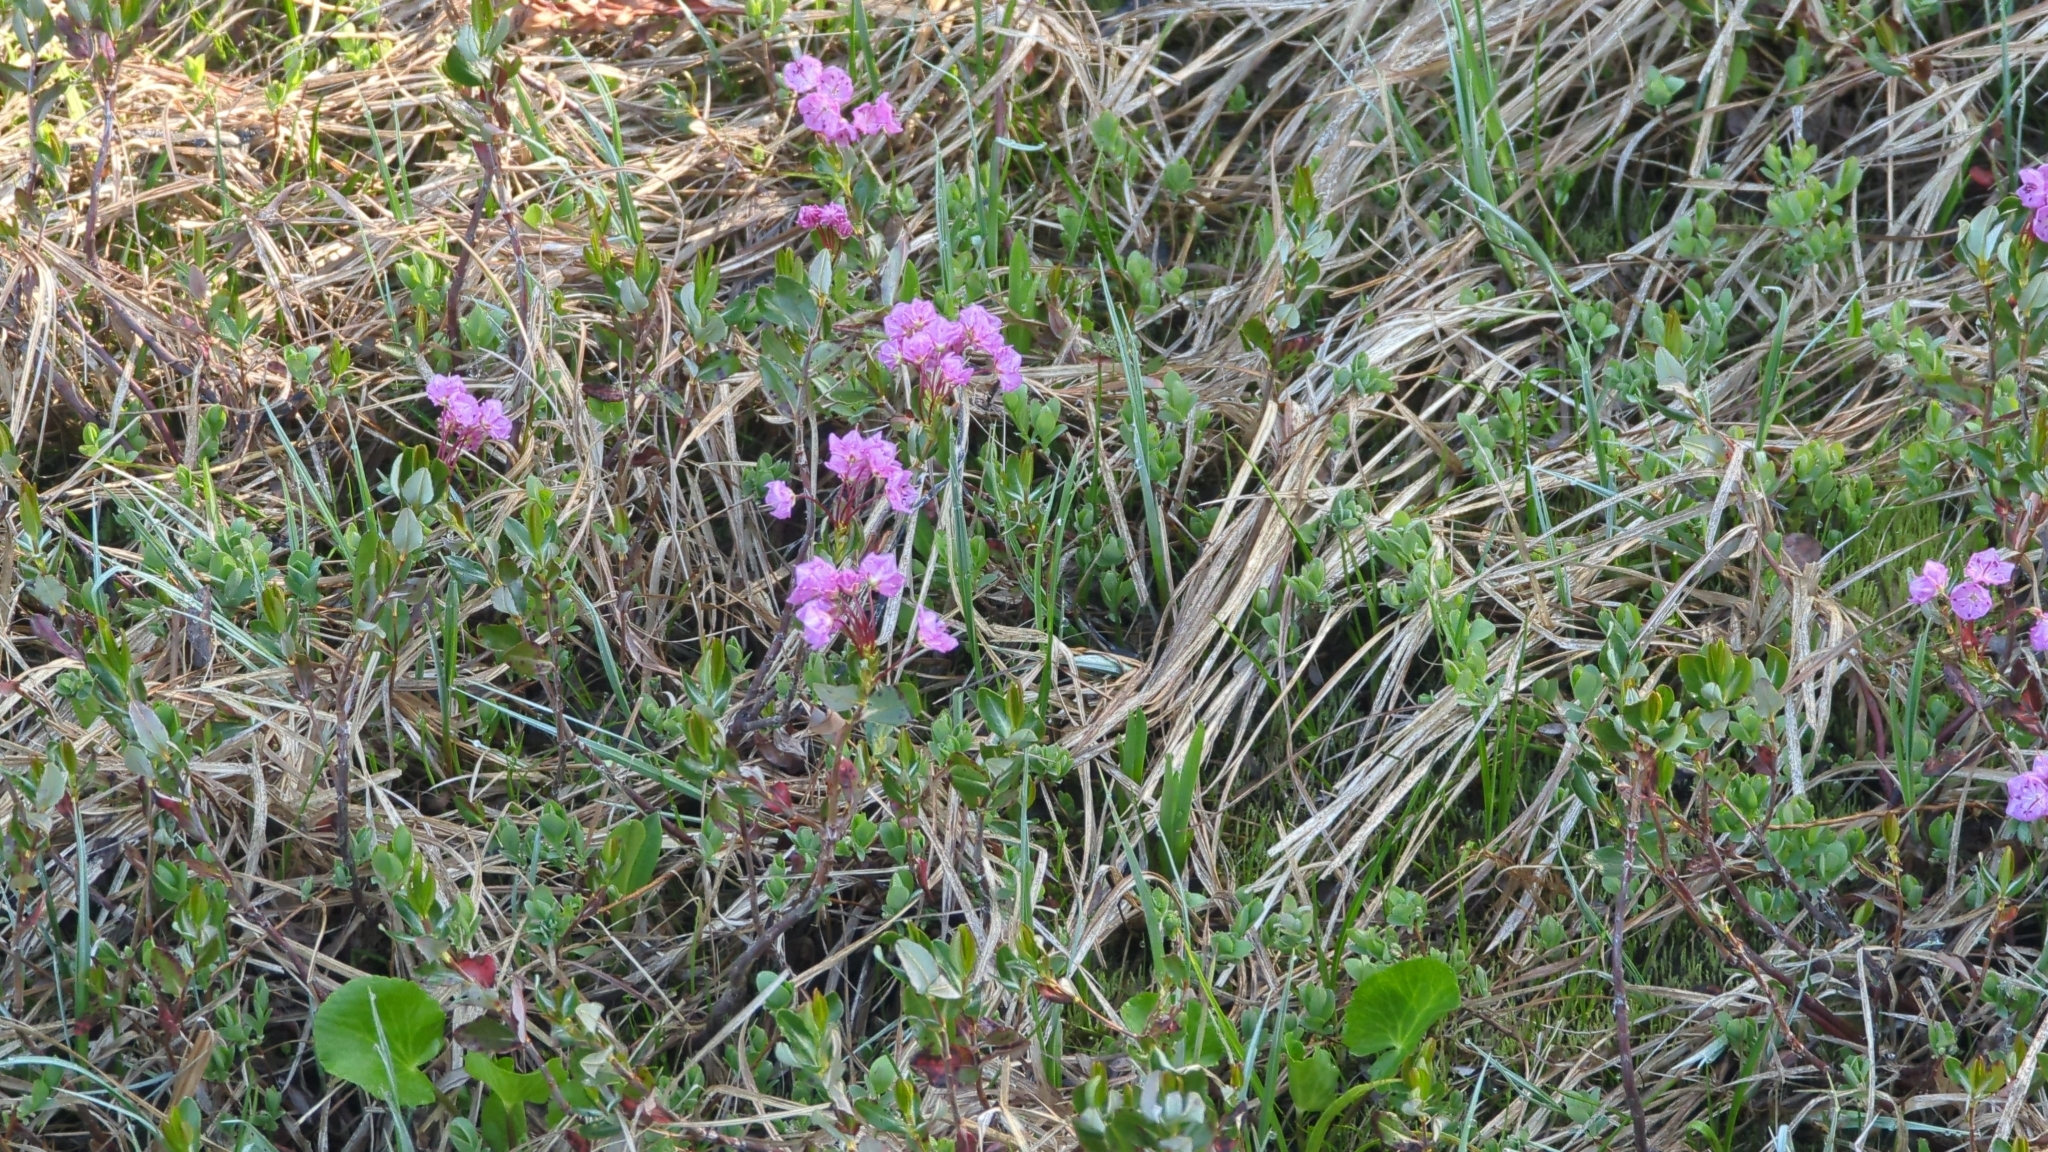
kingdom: Plantae
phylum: Tracheophyta
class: Magnoliopsida
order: Ericales
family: Ericaceae
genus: Kalmia
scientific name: Kalmia microphylla
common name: Alpine bog laurel
